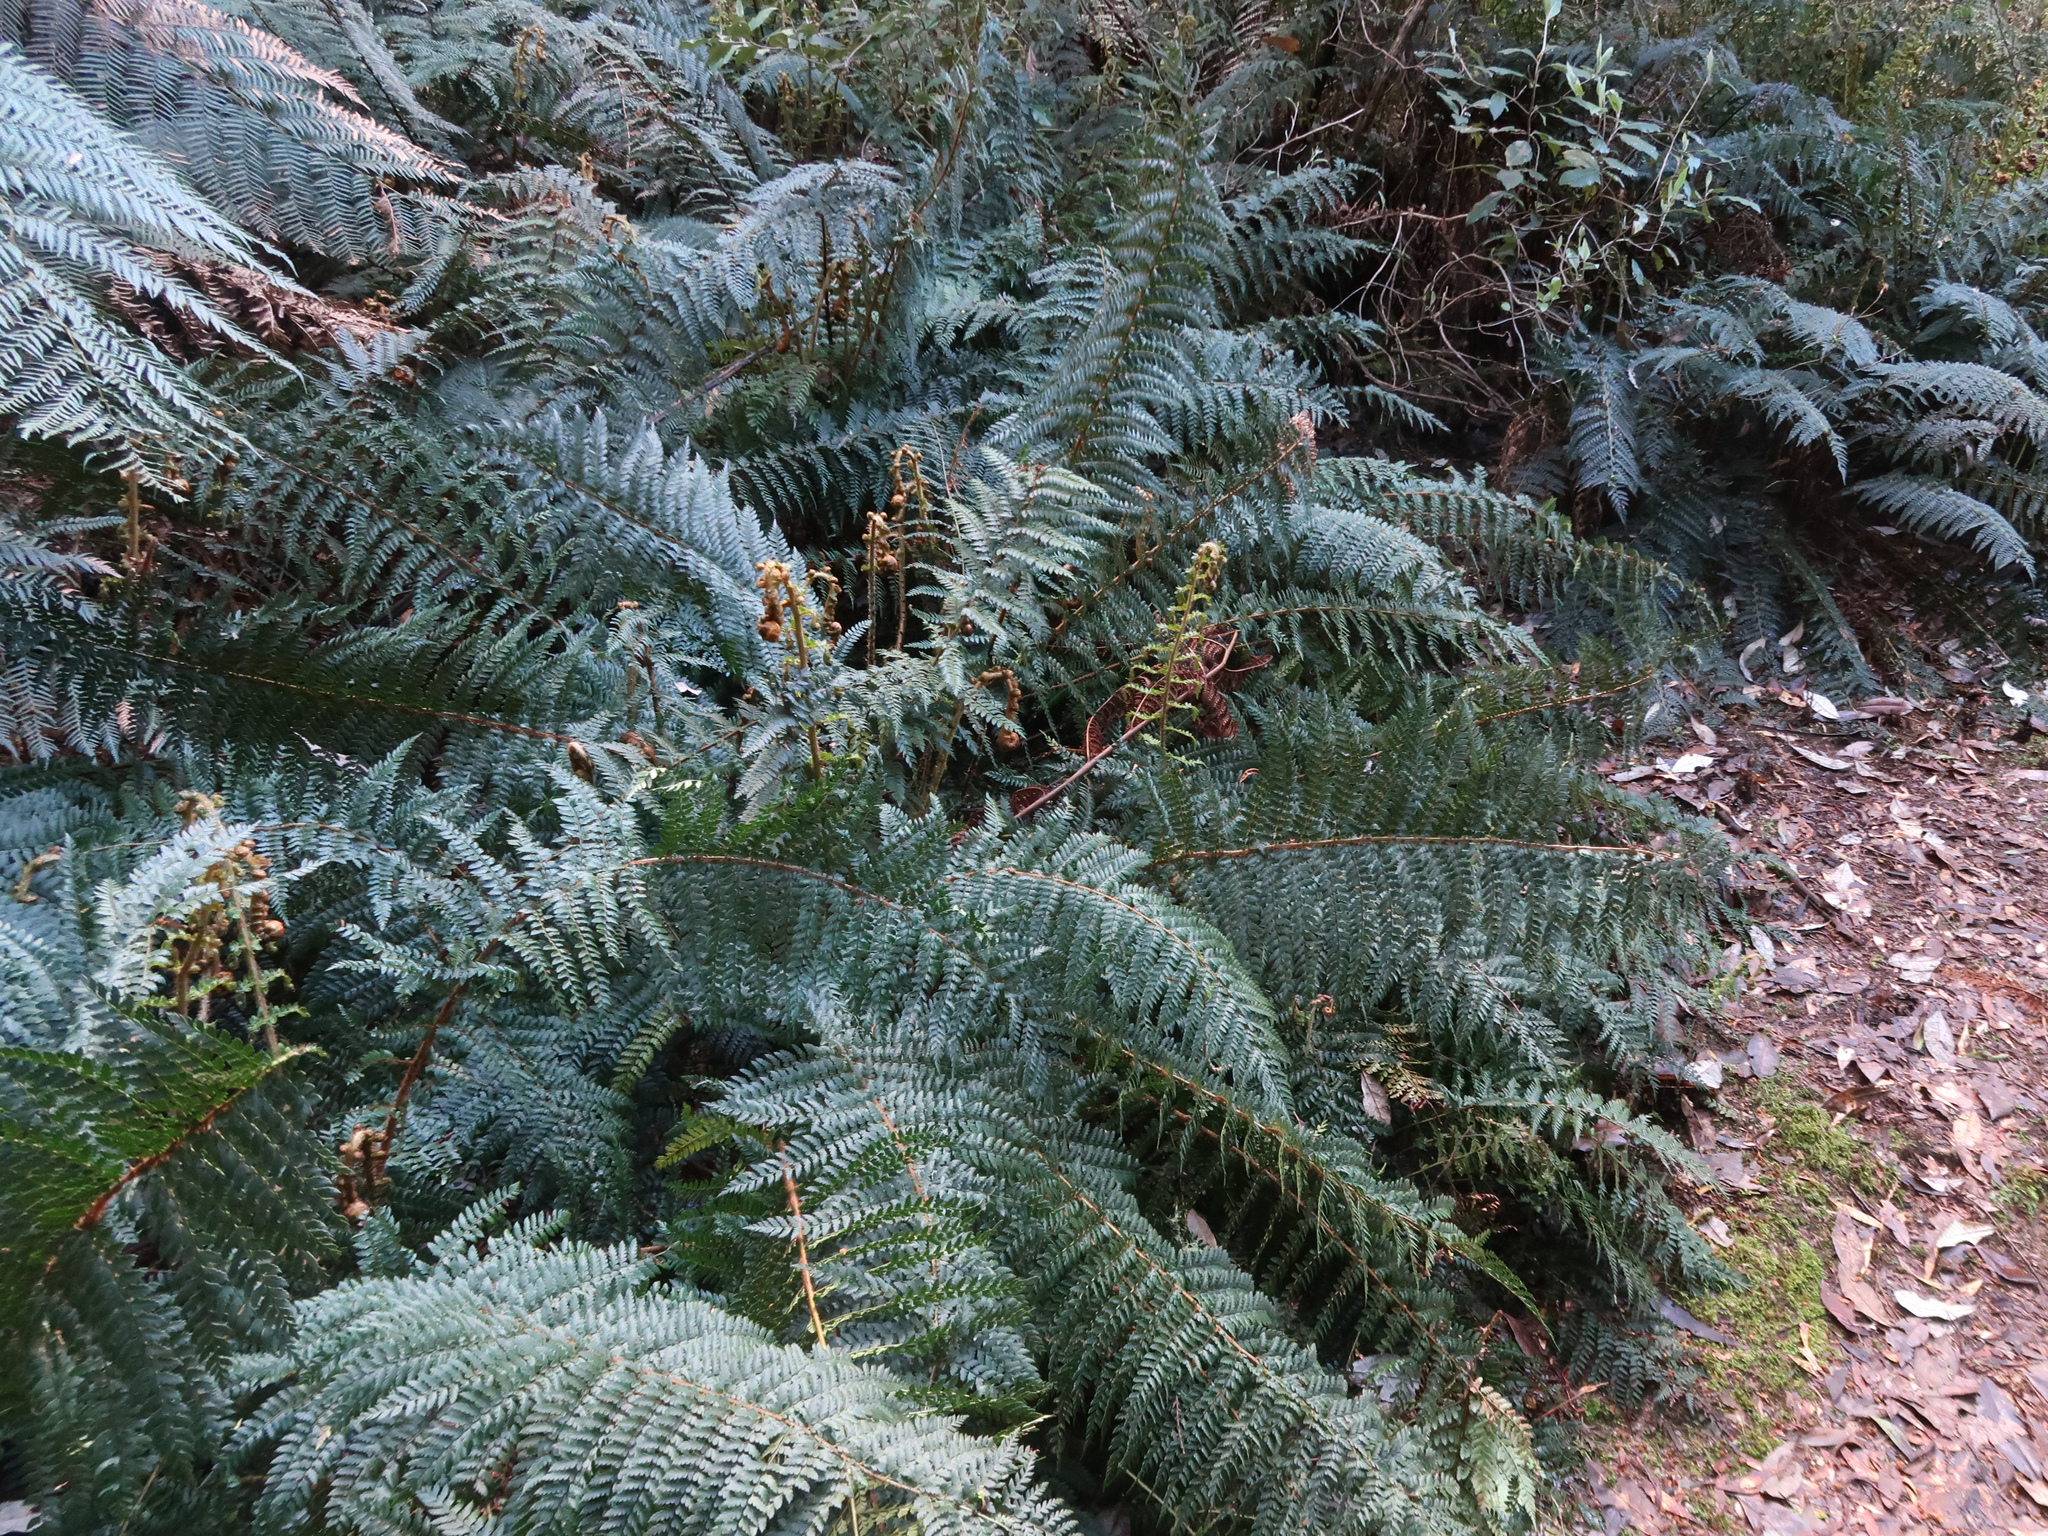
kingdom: Plantae
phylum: Tracheophyta
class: Polypodiopsida
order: Polypodiales
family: Dryopteridaceae
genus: Polystichum
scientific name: Polystichum proliferum
